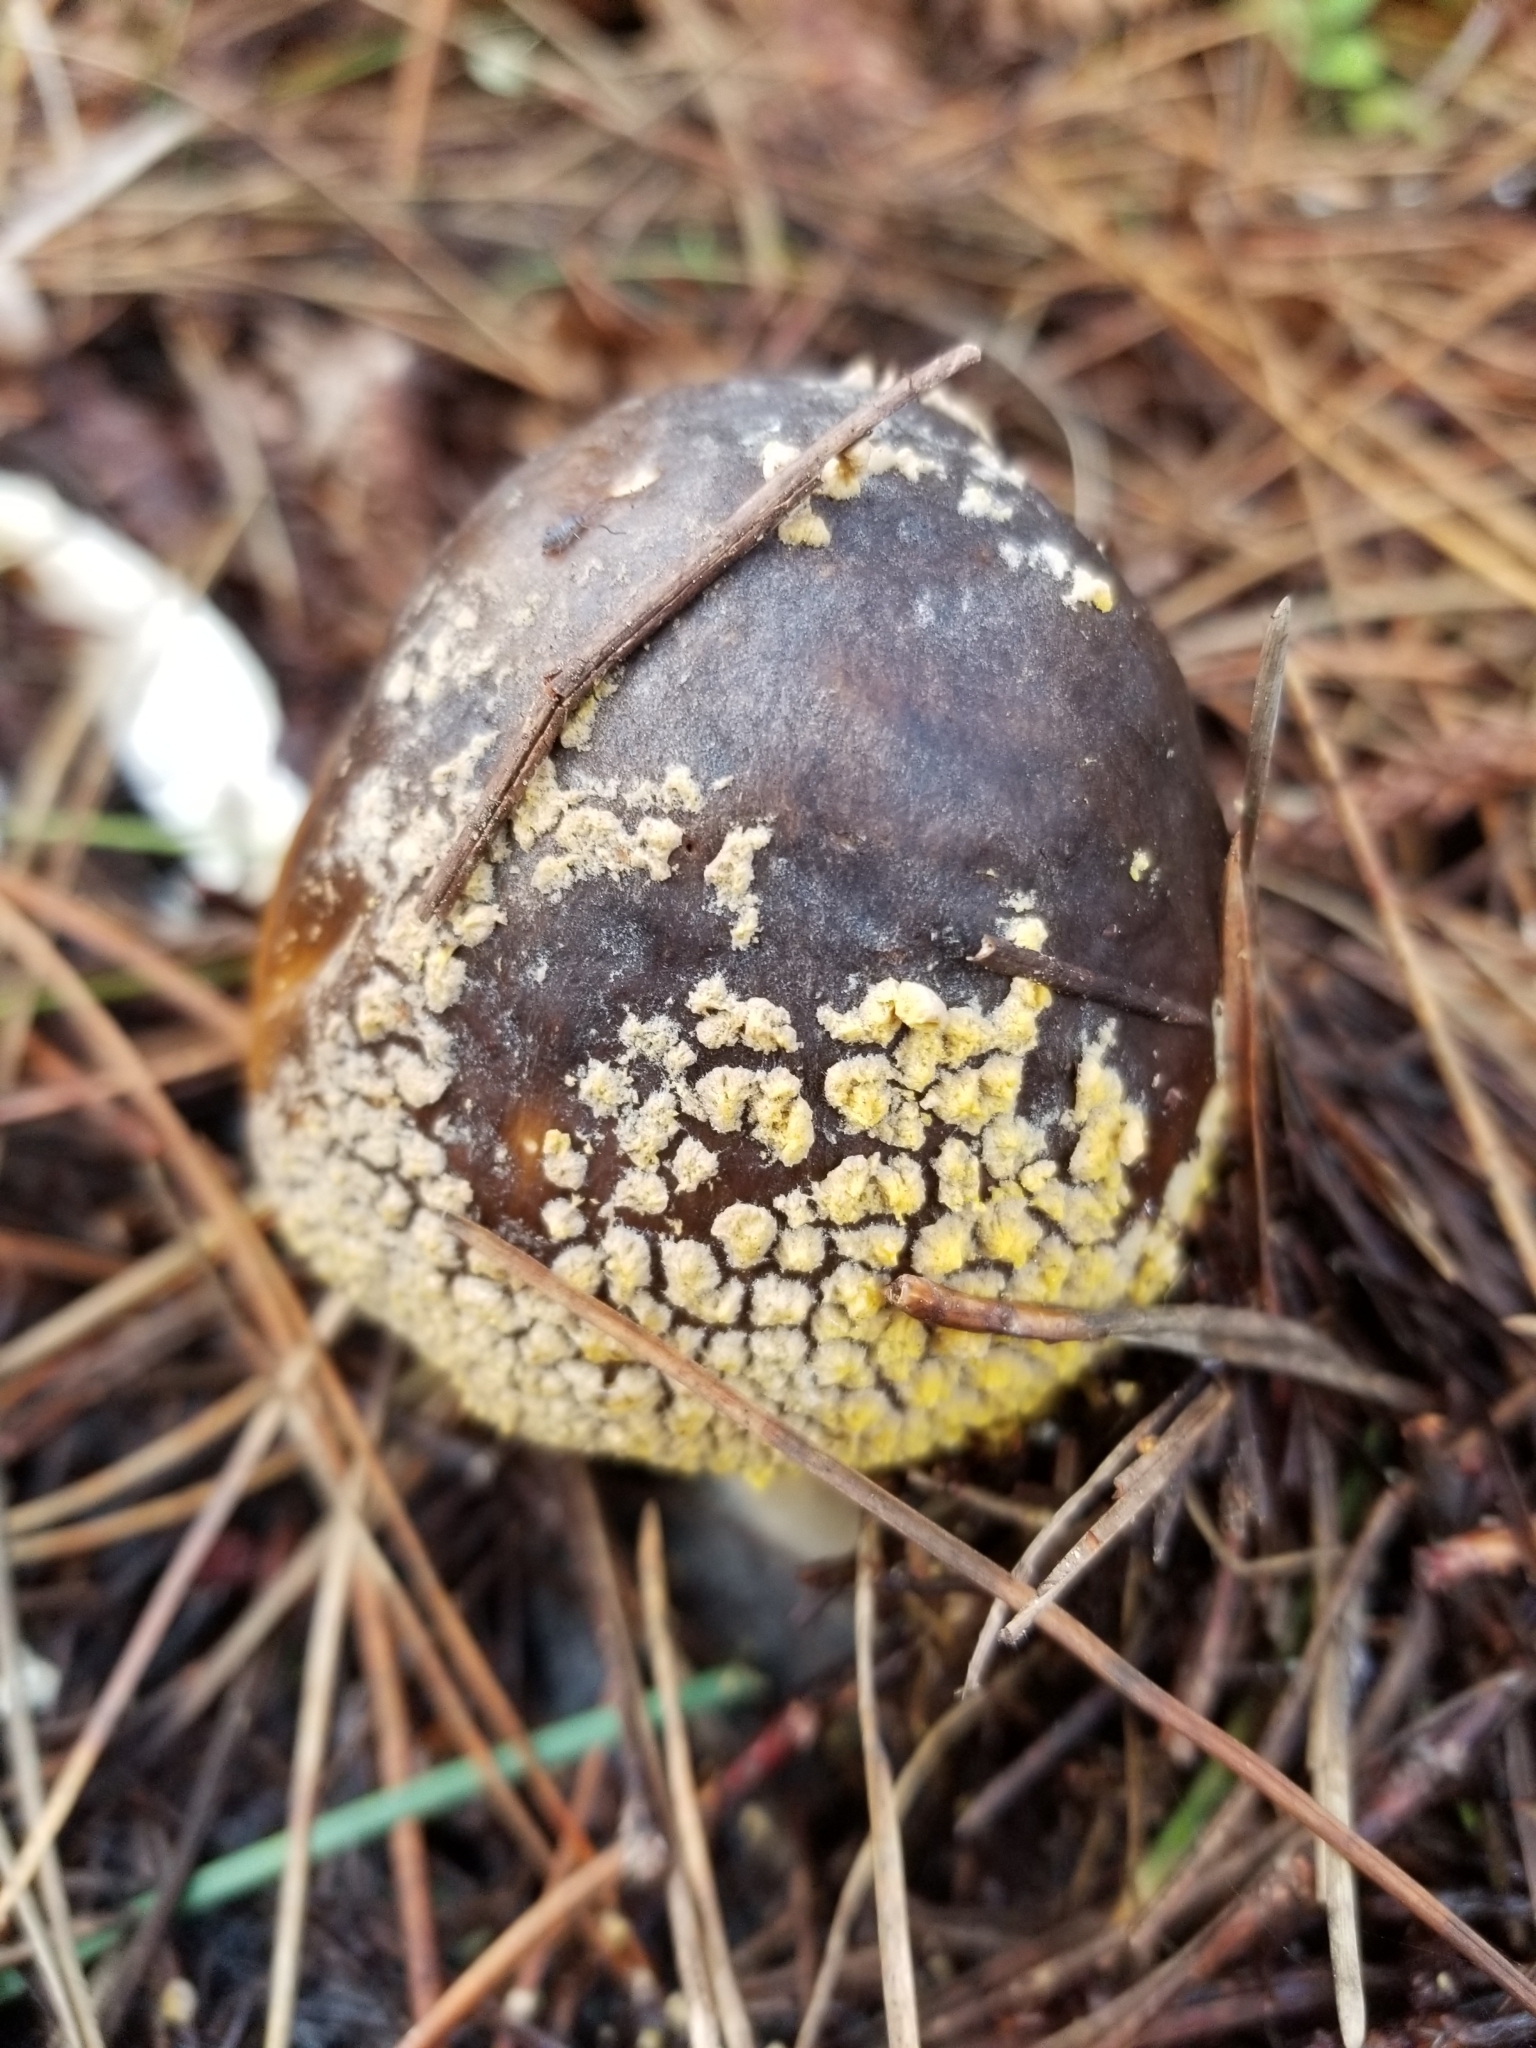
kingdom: Fungi
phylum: Basidiomycota
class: Agaricomycetes
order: Agaricales
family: Amanitaceae
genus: Amanita
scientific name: Amanita augusta
